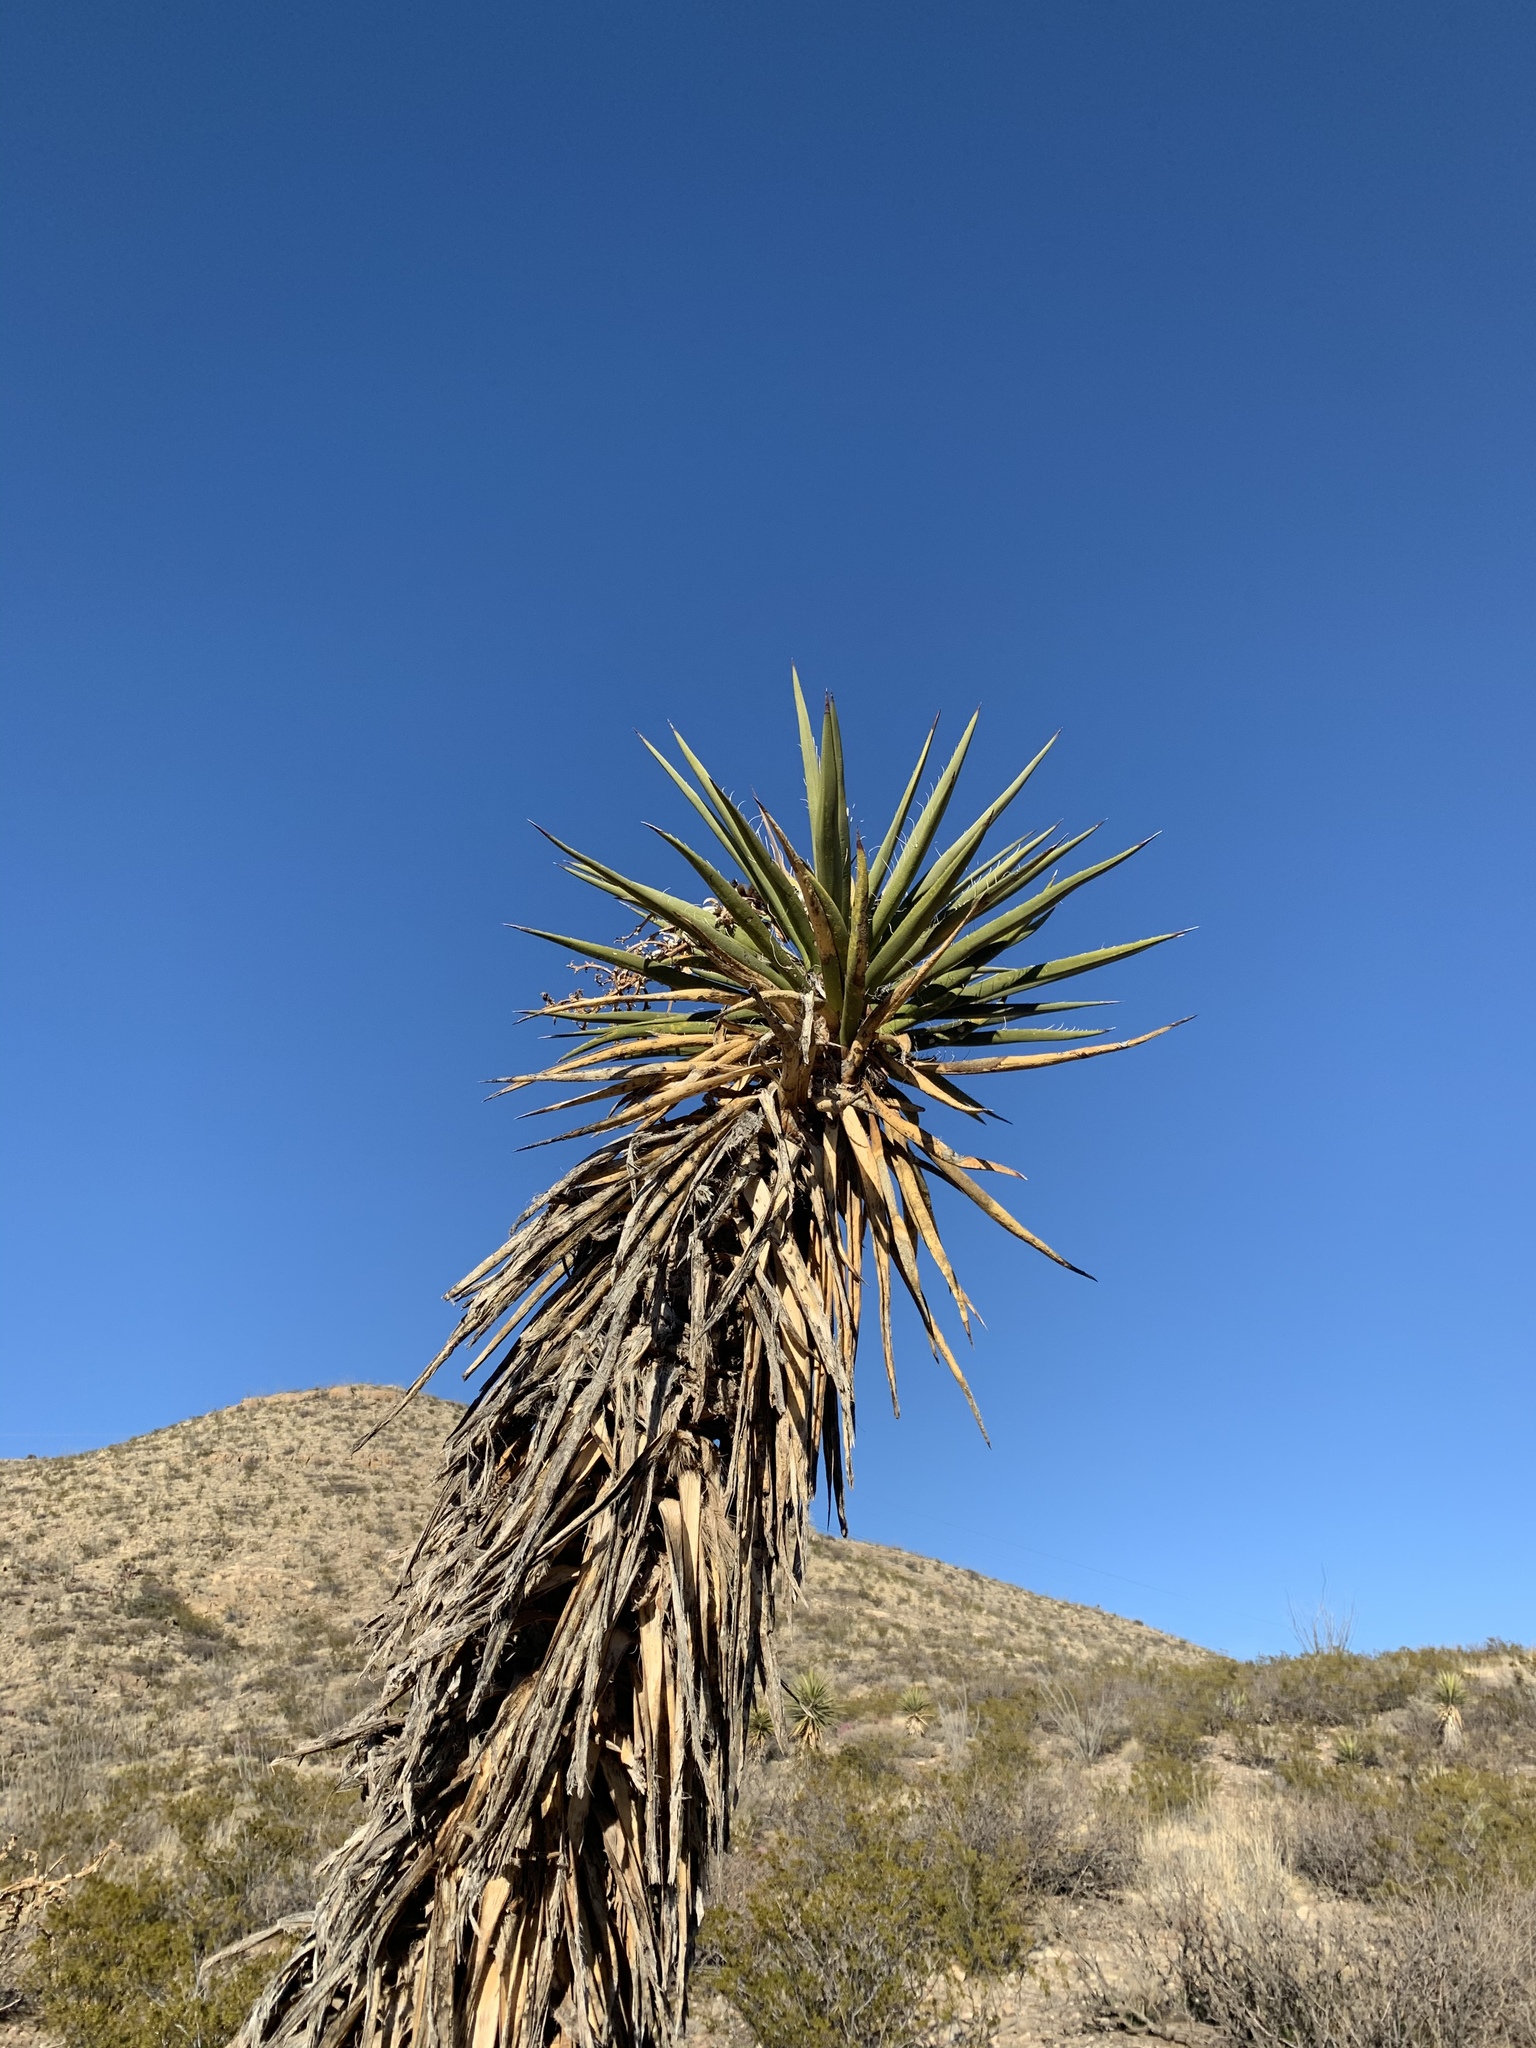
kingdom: Plantae
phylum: Tracheophyta
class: Liliopsida
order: Asparagales
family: Asparagaceae
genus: Yucca
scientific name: Yucca treculiana
